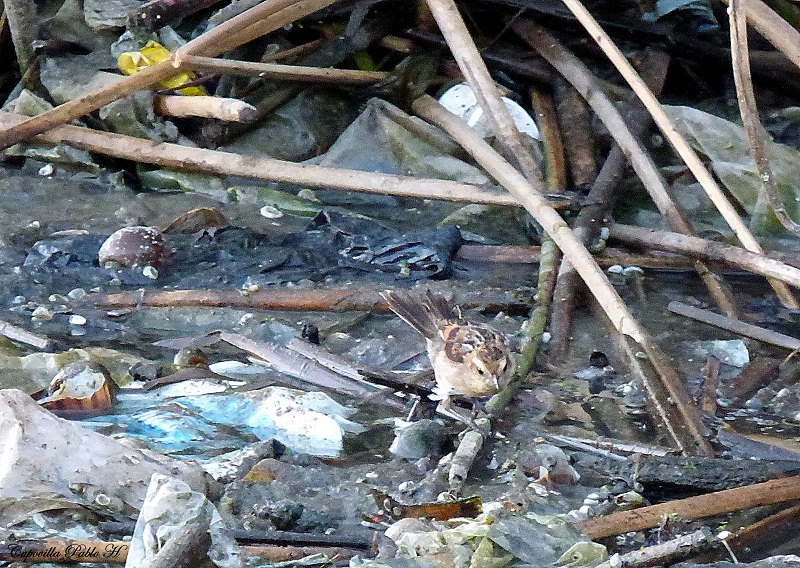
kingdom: Animalia
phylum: Chordata
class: Aves
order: Passeriformes
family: Furnariidae
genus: Phleocryptes
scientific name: Phleocryptes melanops
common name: Wren-like rushbird
